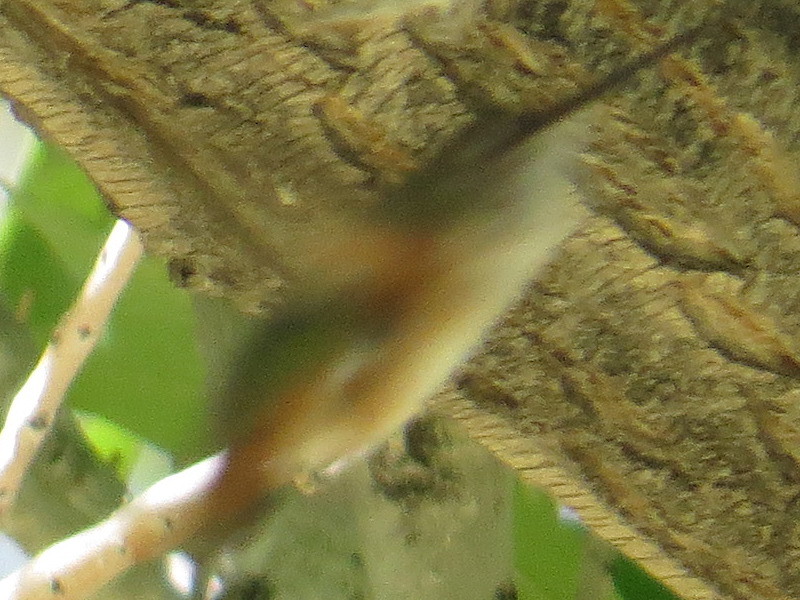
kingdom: Animalia
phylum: Chordata
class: Aves
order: Apodiformes
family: Trochilidae
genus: Selasphorus
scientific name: Selasphorus rufus
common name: Rufous hummingbird
